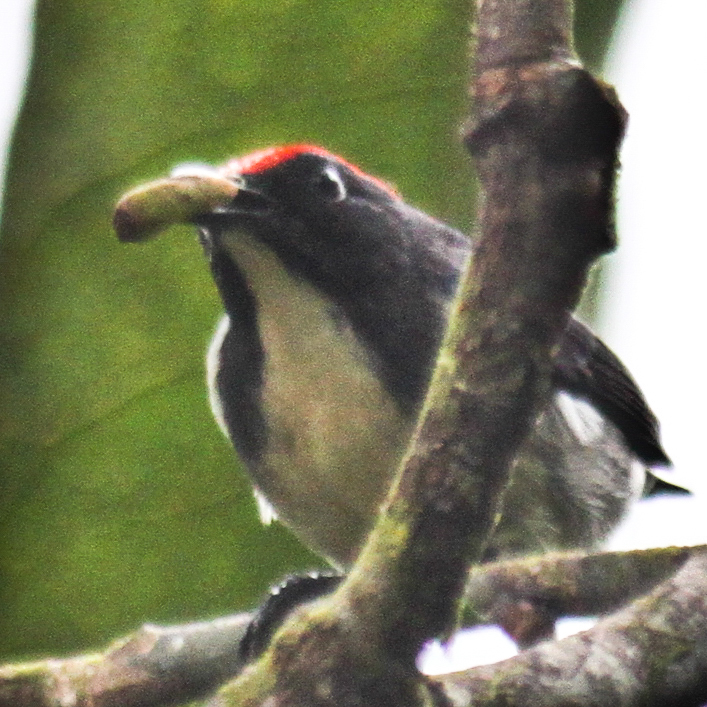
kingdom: Animalia
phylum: Chordata
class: Aves
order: Passeriformes
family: Dicaeidae
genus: Dicaeum
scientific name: Dicaeum cruentatum
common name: Scarlet-backed flowerpecker
